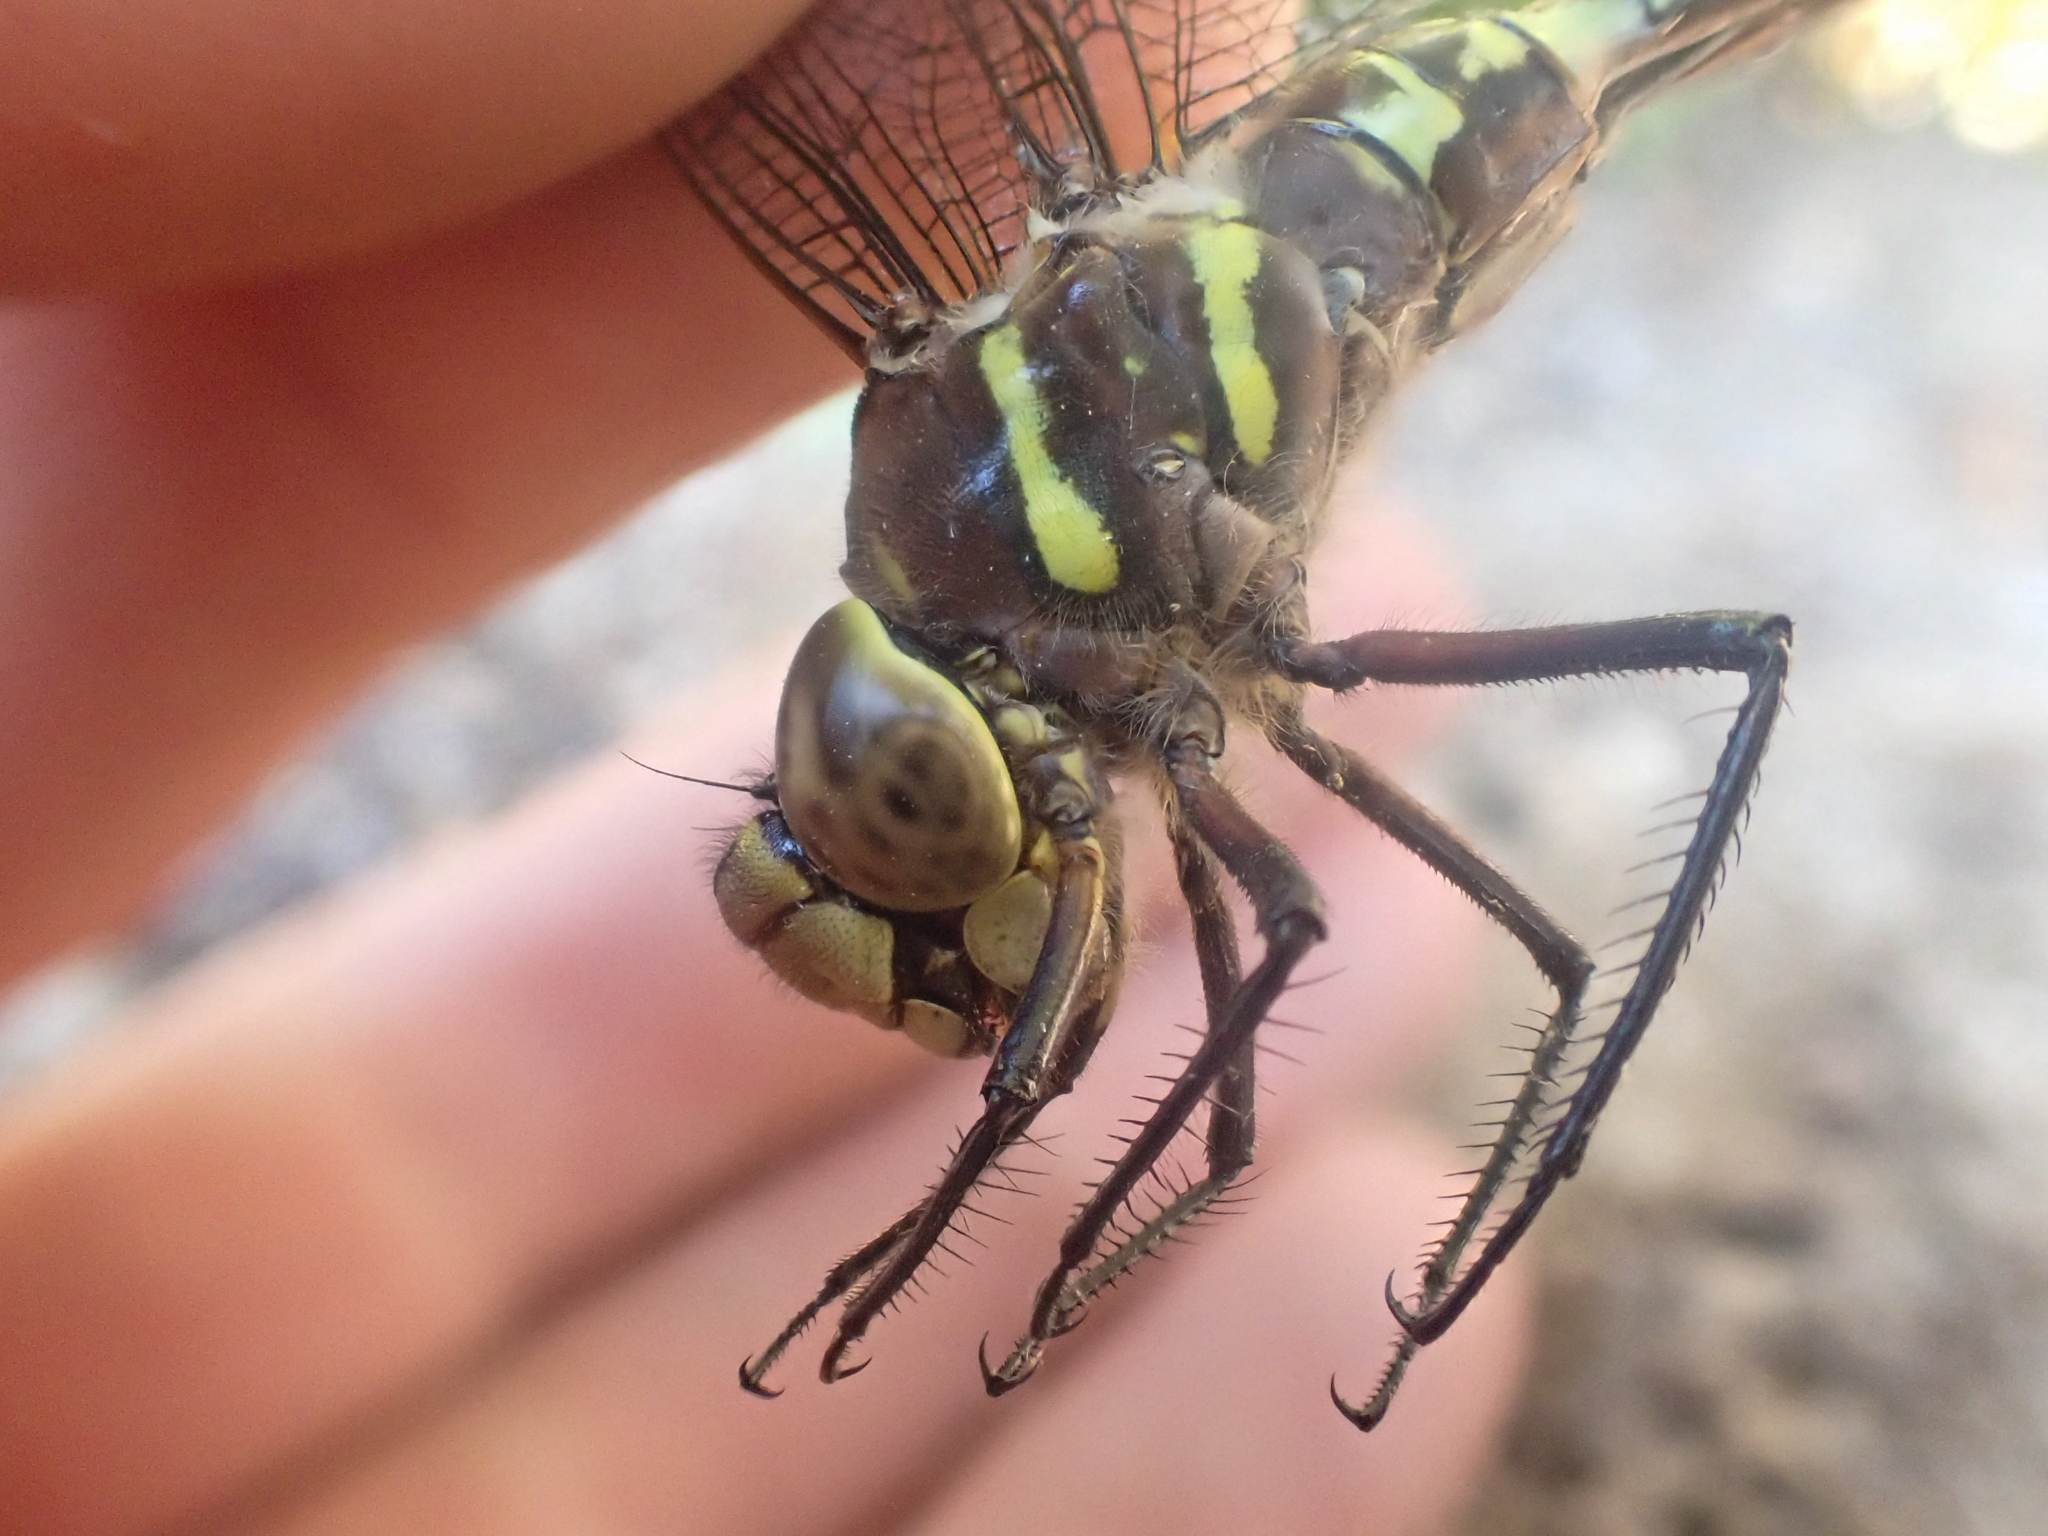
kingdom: Animalia
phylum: Arthropoda
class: Insecta
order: Odonata
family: Aeshnidae
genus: Aeshna
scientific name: Aeshna palmata
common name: Paddle-tailed darner
